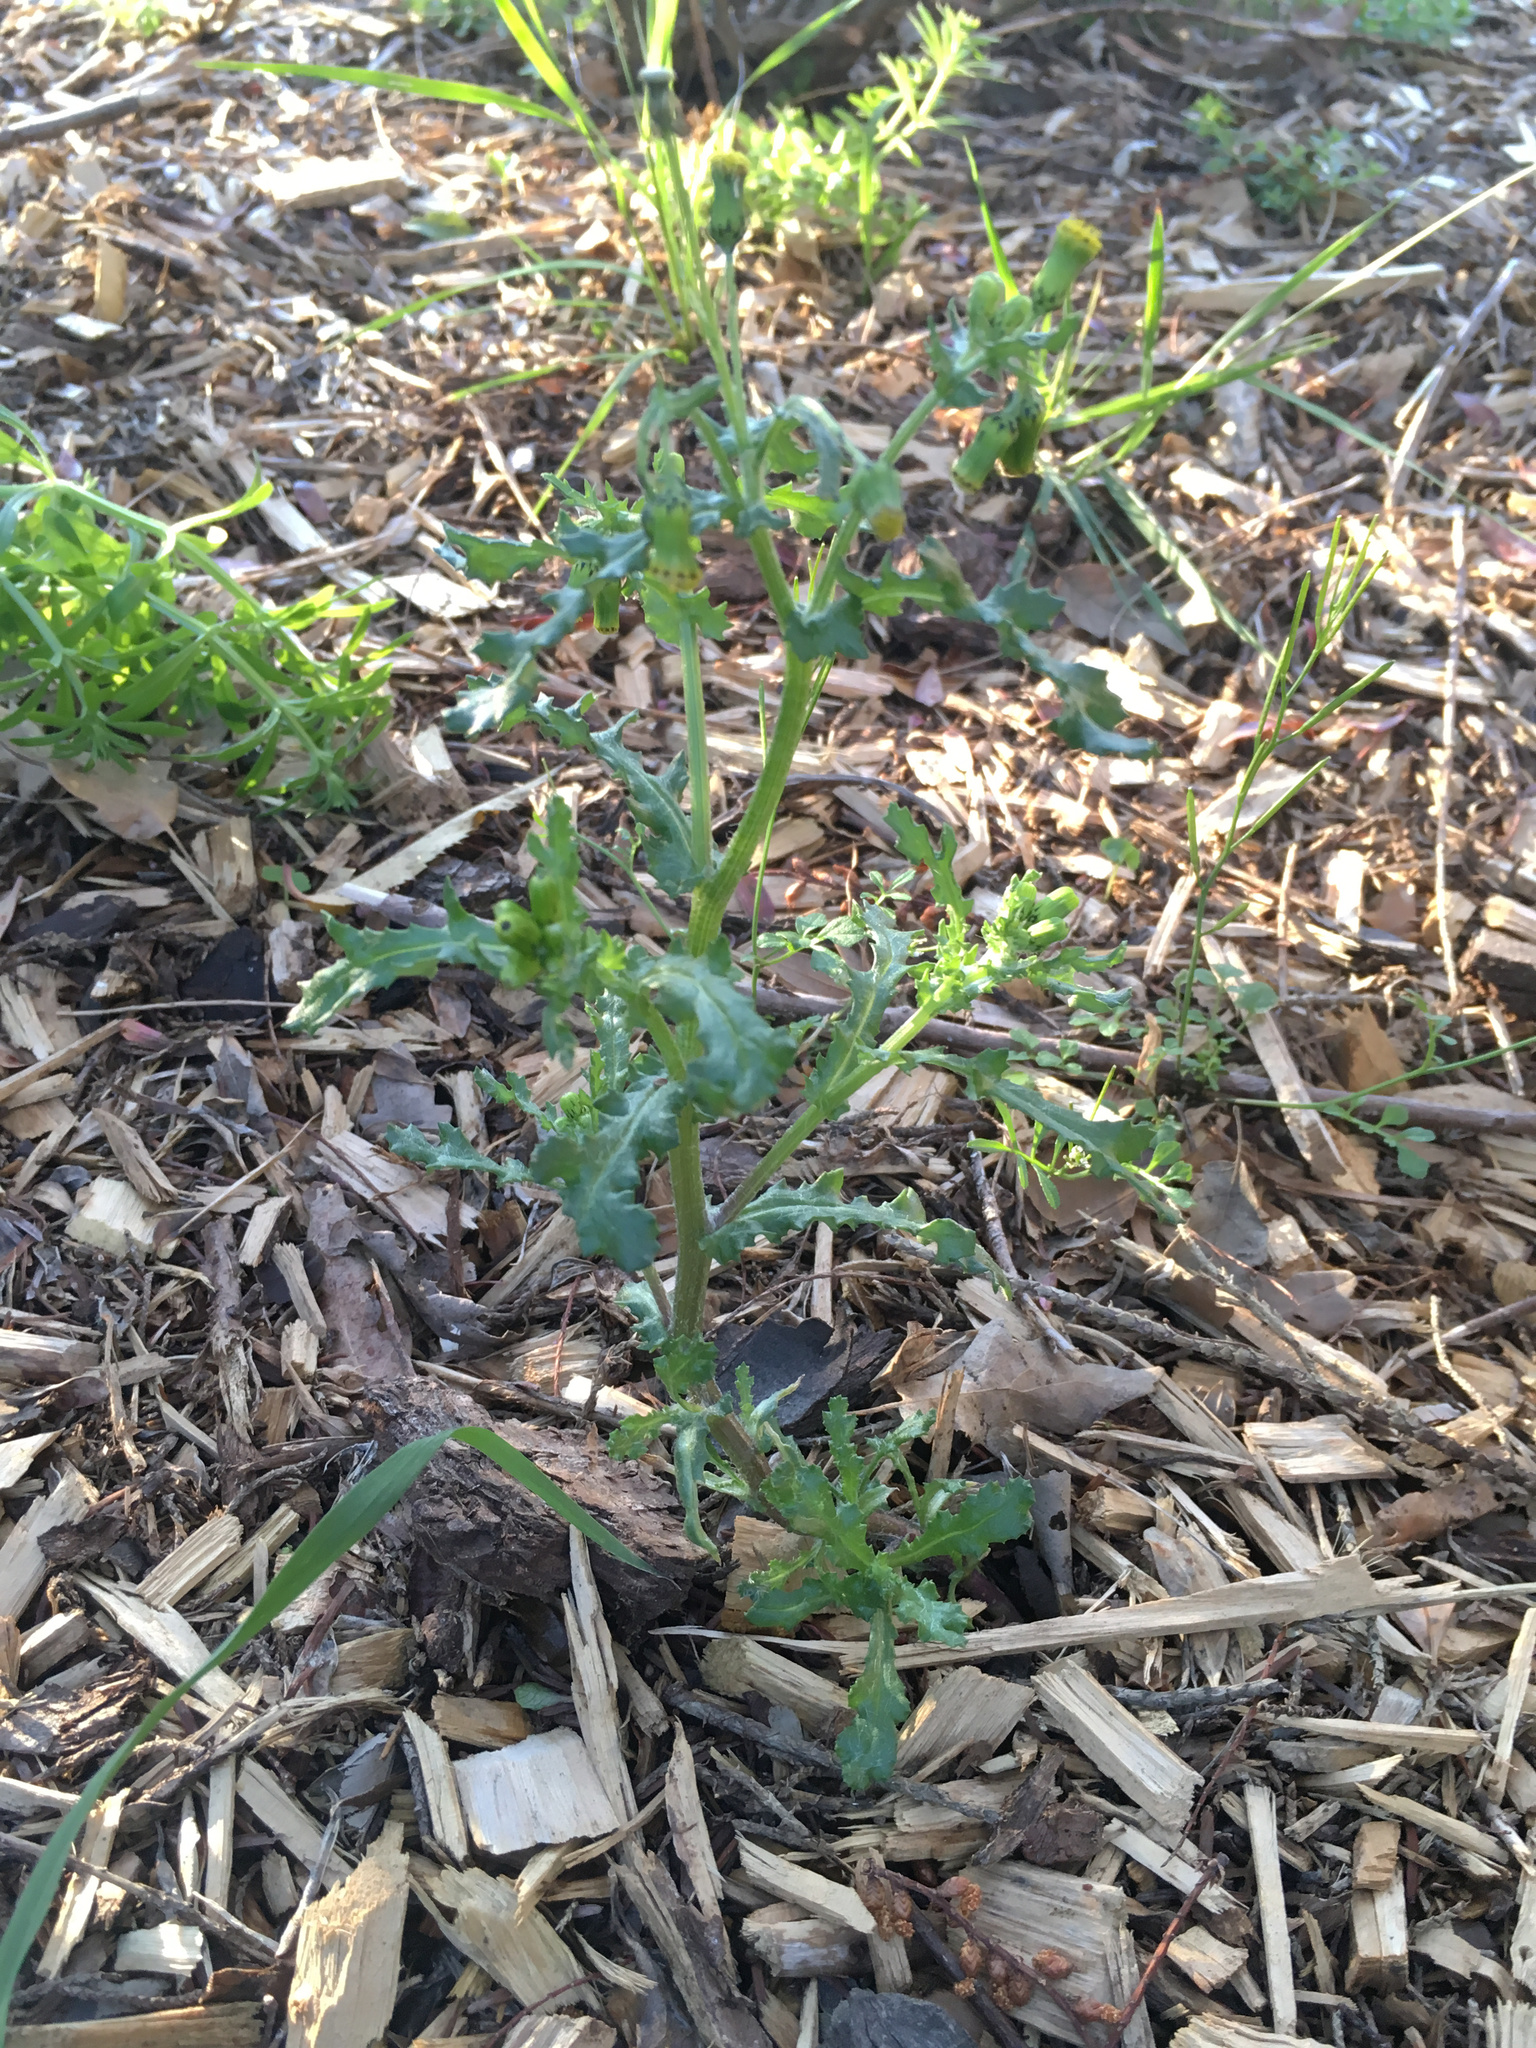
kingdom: Plantae
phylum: Tracheophyta
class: Magnoliopsida
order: Asterales
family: Asteraceae
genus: Senecio
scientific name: Senecio vulgaris
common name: Old-man-in-the-spring
